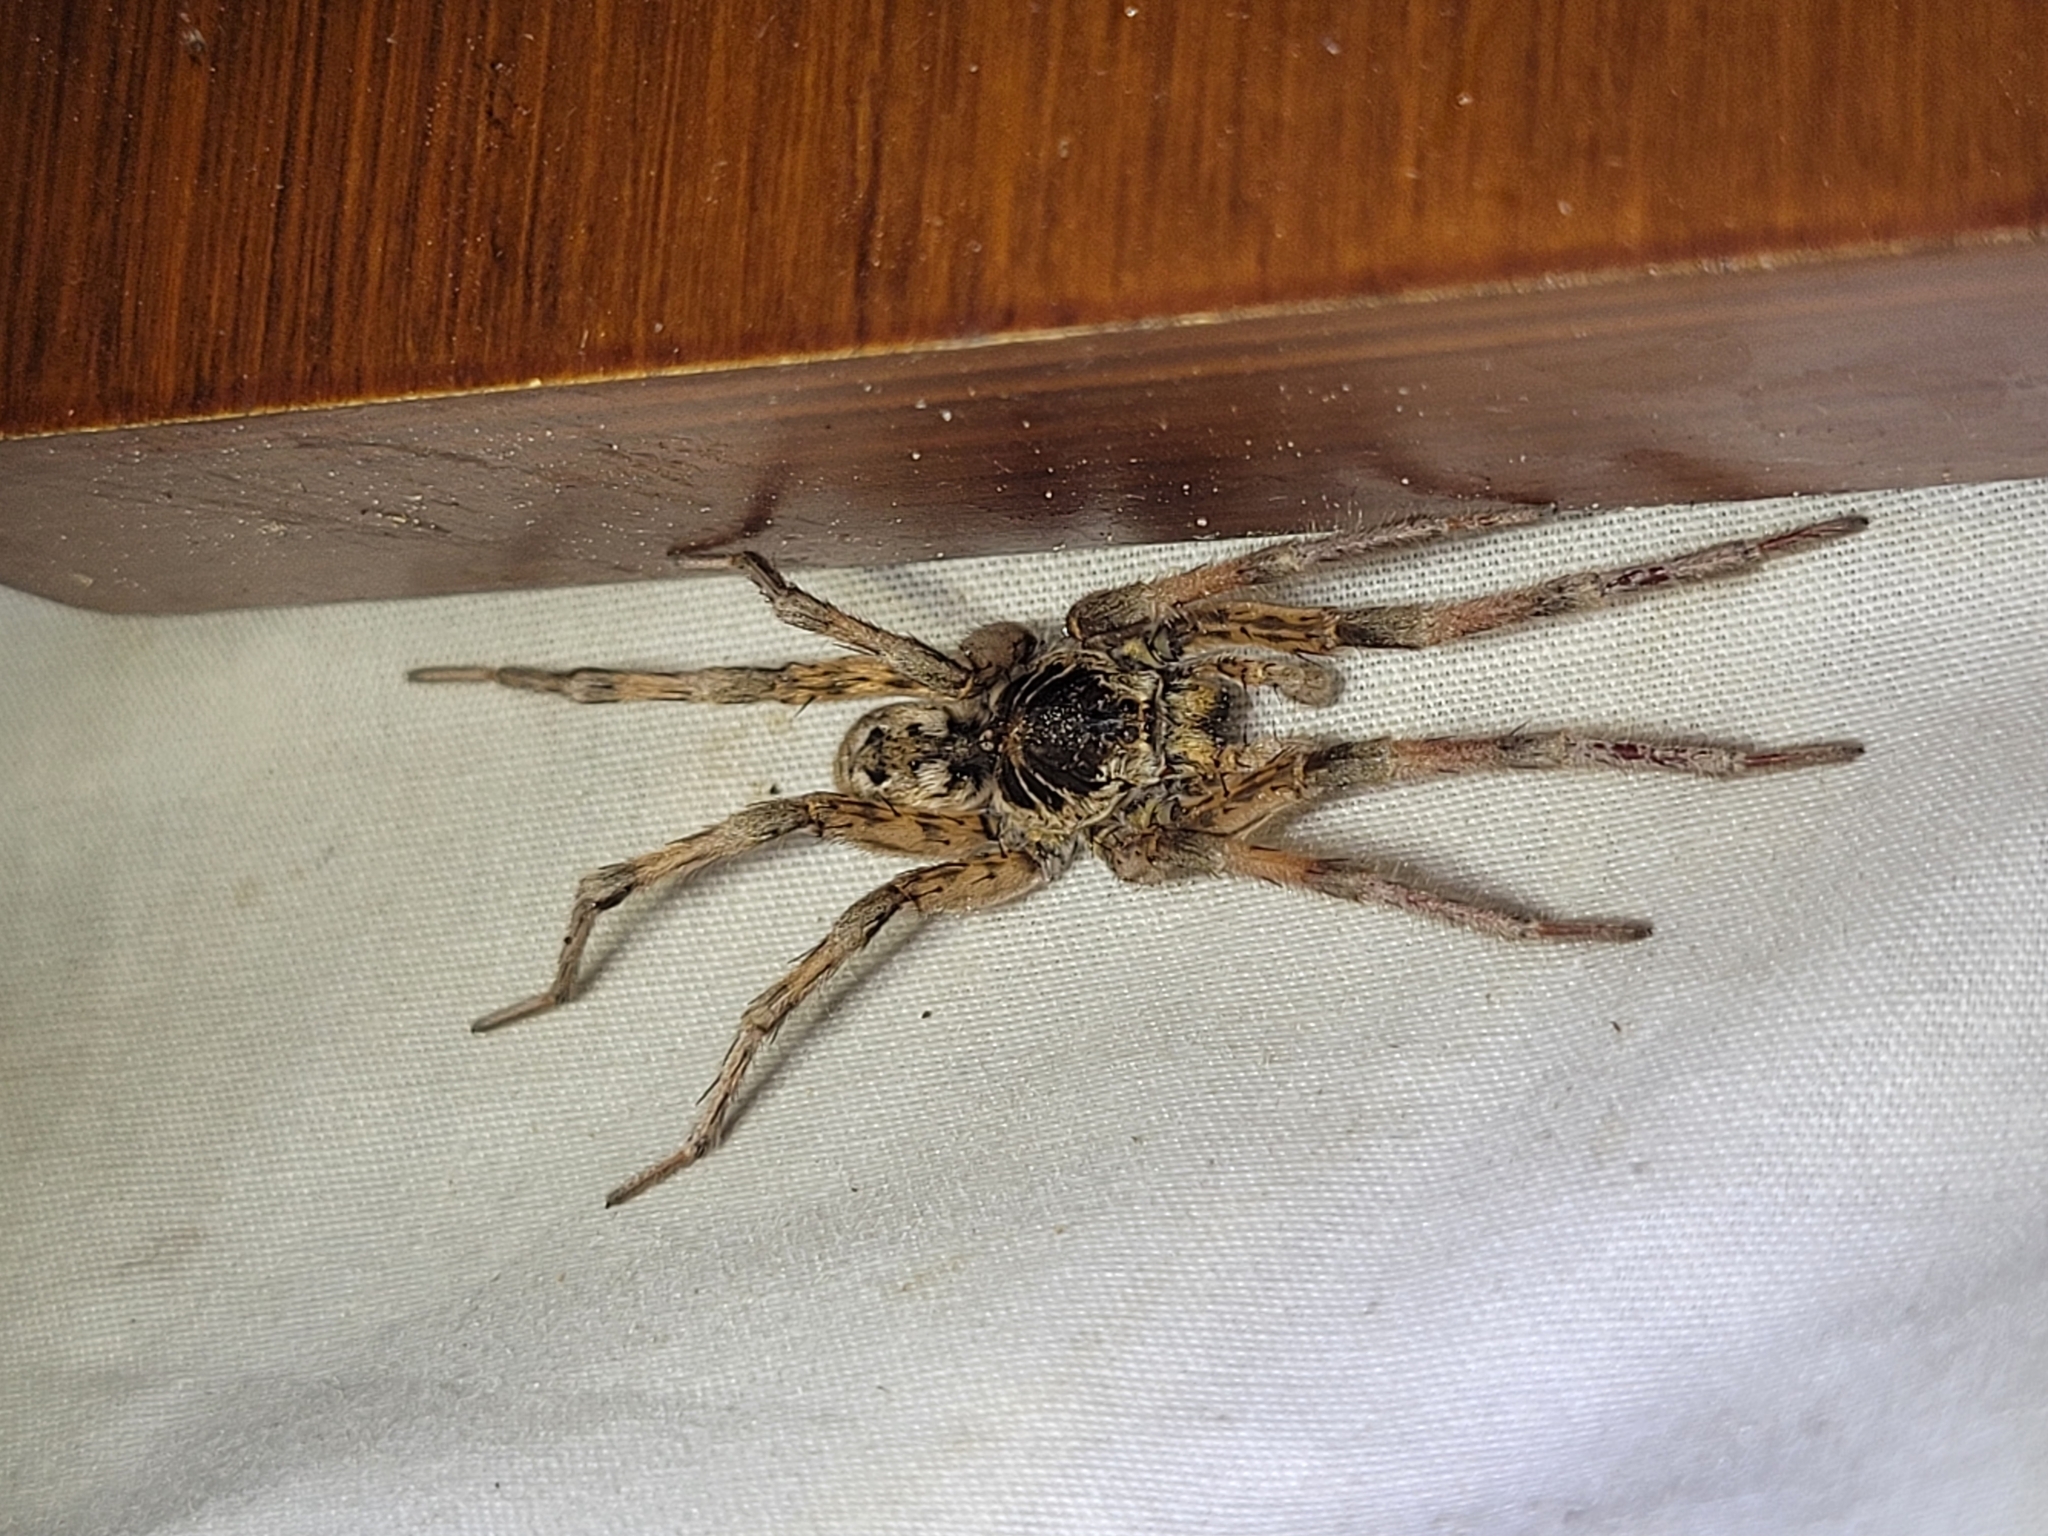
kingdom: Animalia
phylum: Arthropoda
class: Arachnida
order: Araneae
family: Lycosidae
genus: Hogna
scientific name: Hogna baltimoriana
